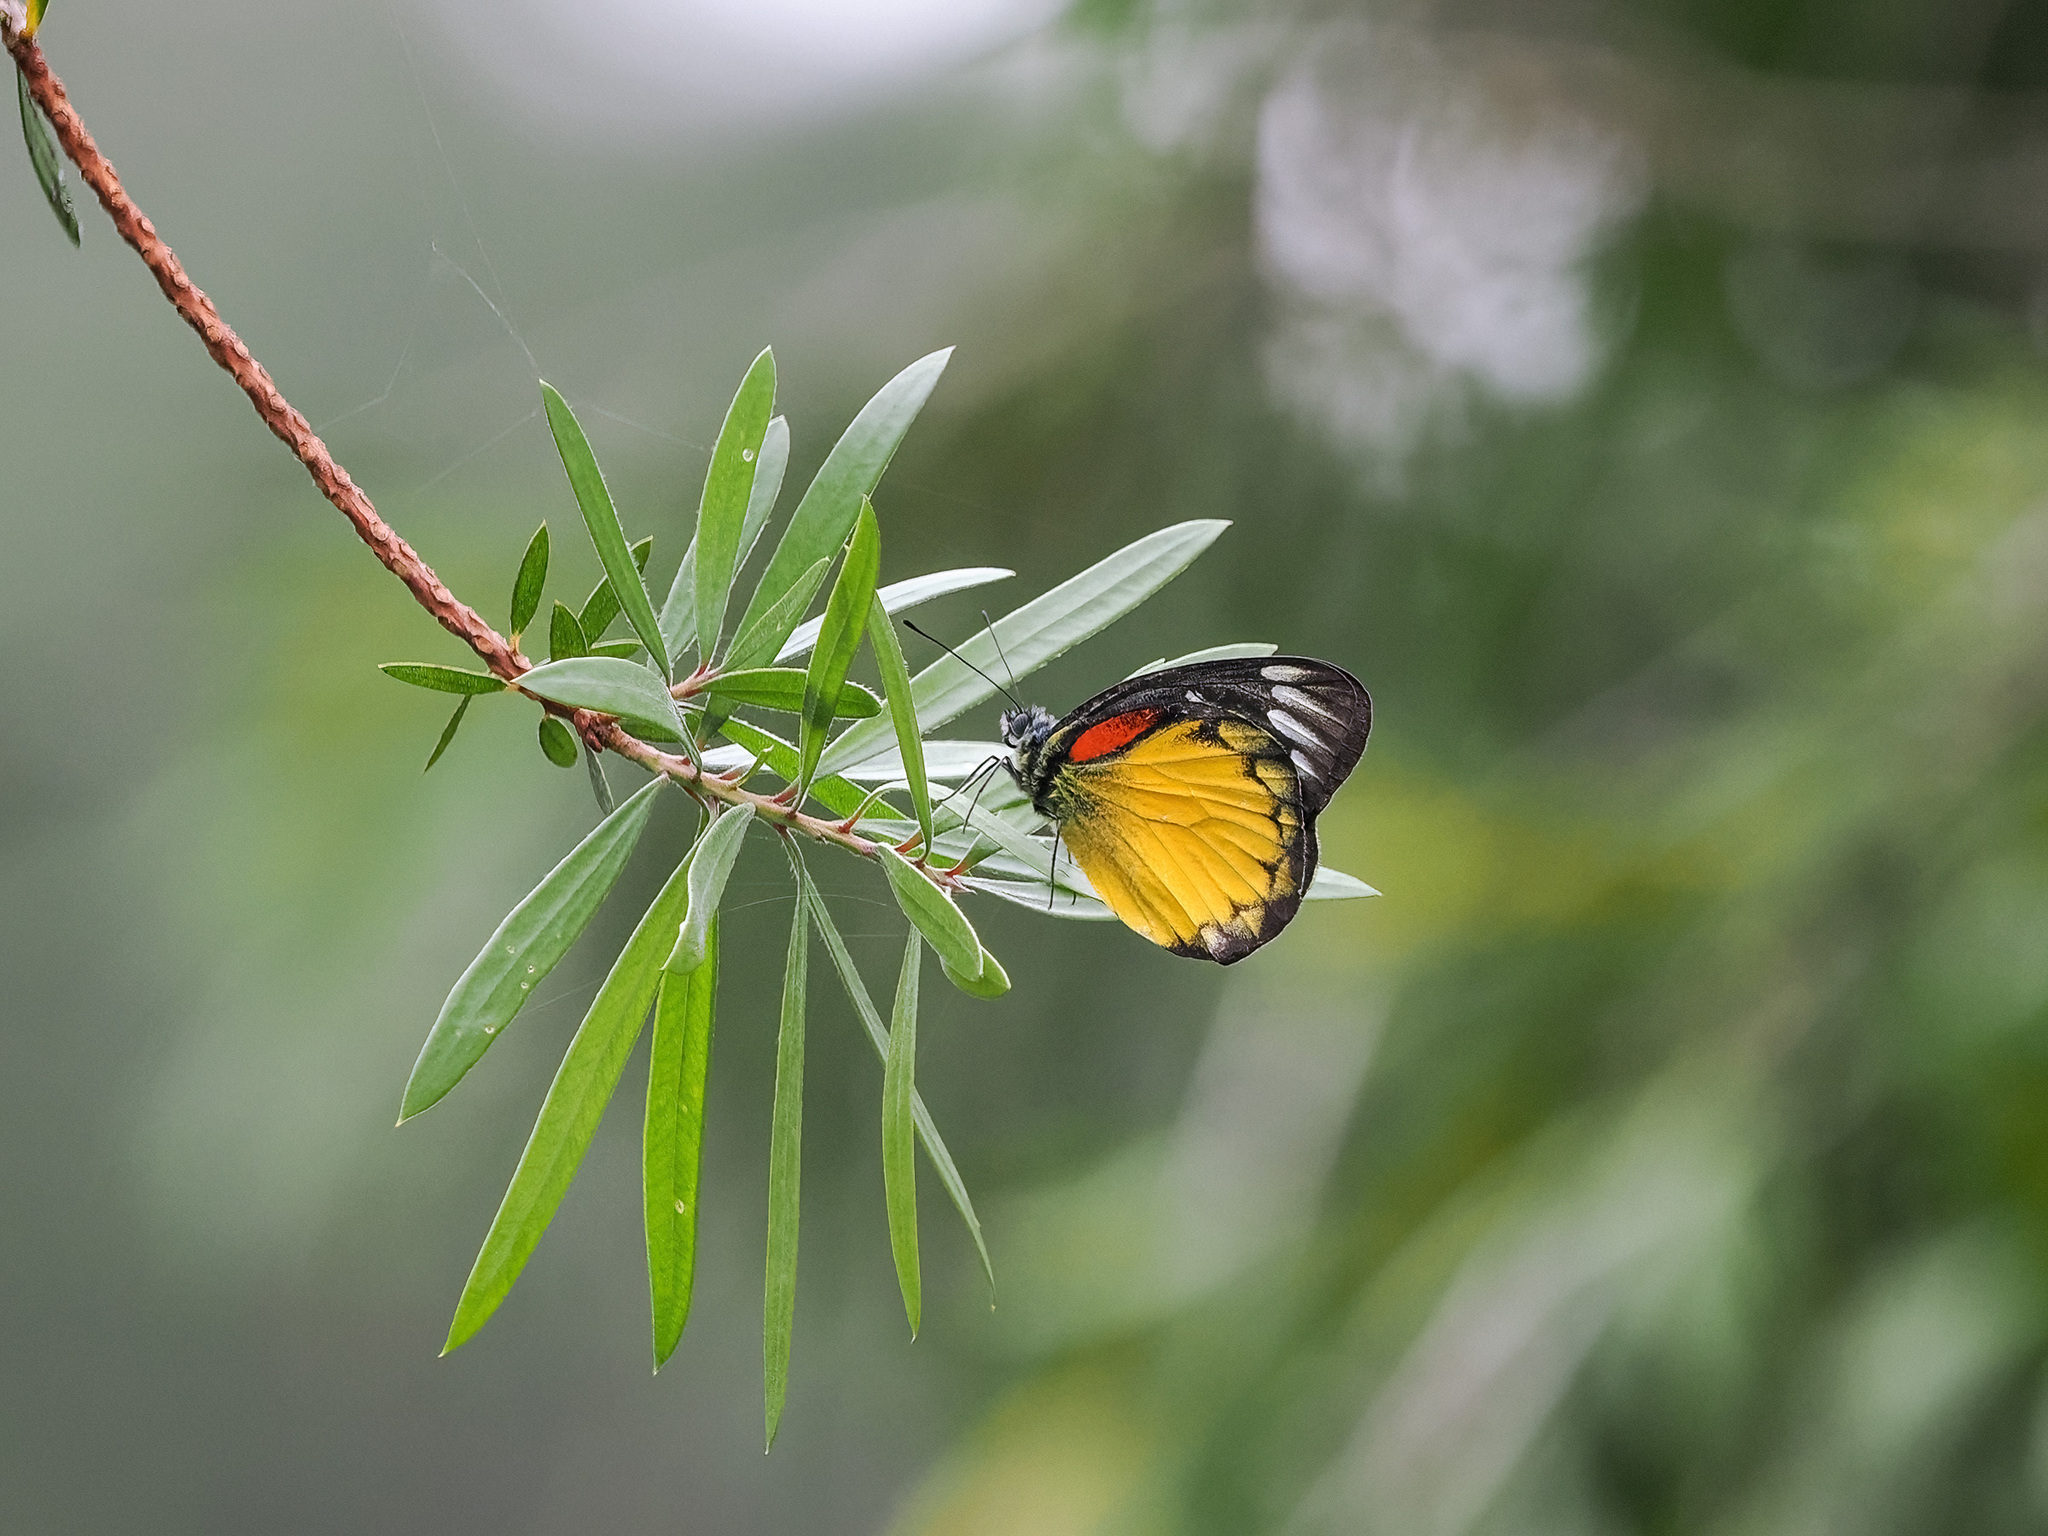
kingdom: Animalia
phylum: Arthropoda
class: Insecta
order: Lepidoptera
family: Pieridae
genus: Delias
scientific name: Delias descombesi
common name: Red-spot jezebel
